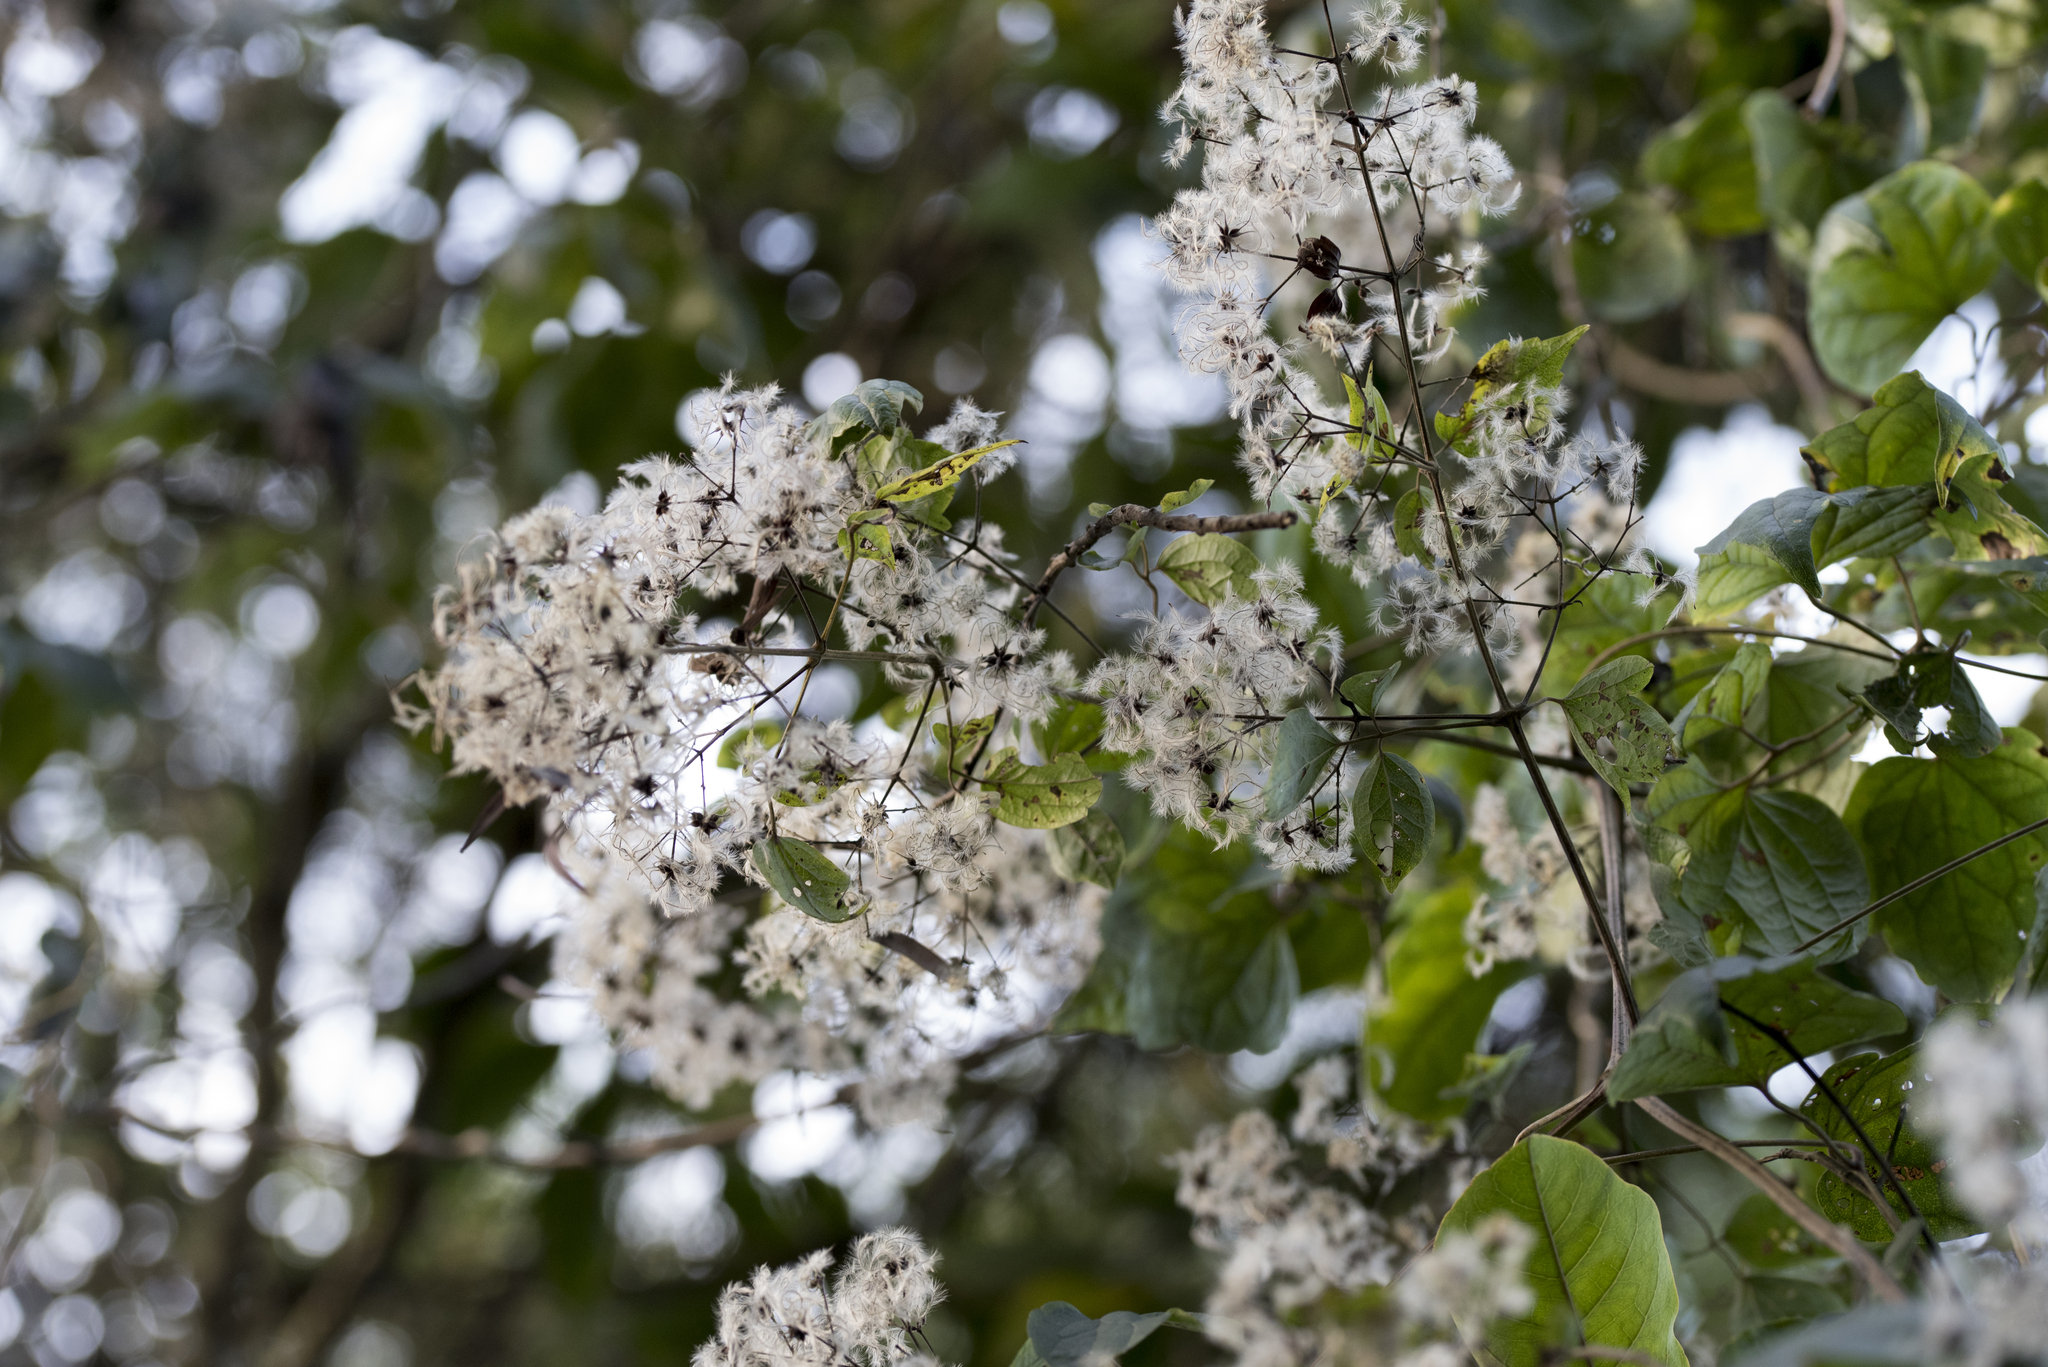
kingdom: Plantae
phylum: Tracheophyta
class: Magnoliopsida
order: Ranunculales
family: Ranunculaceae
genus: Clematis
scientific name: Clematis grata
